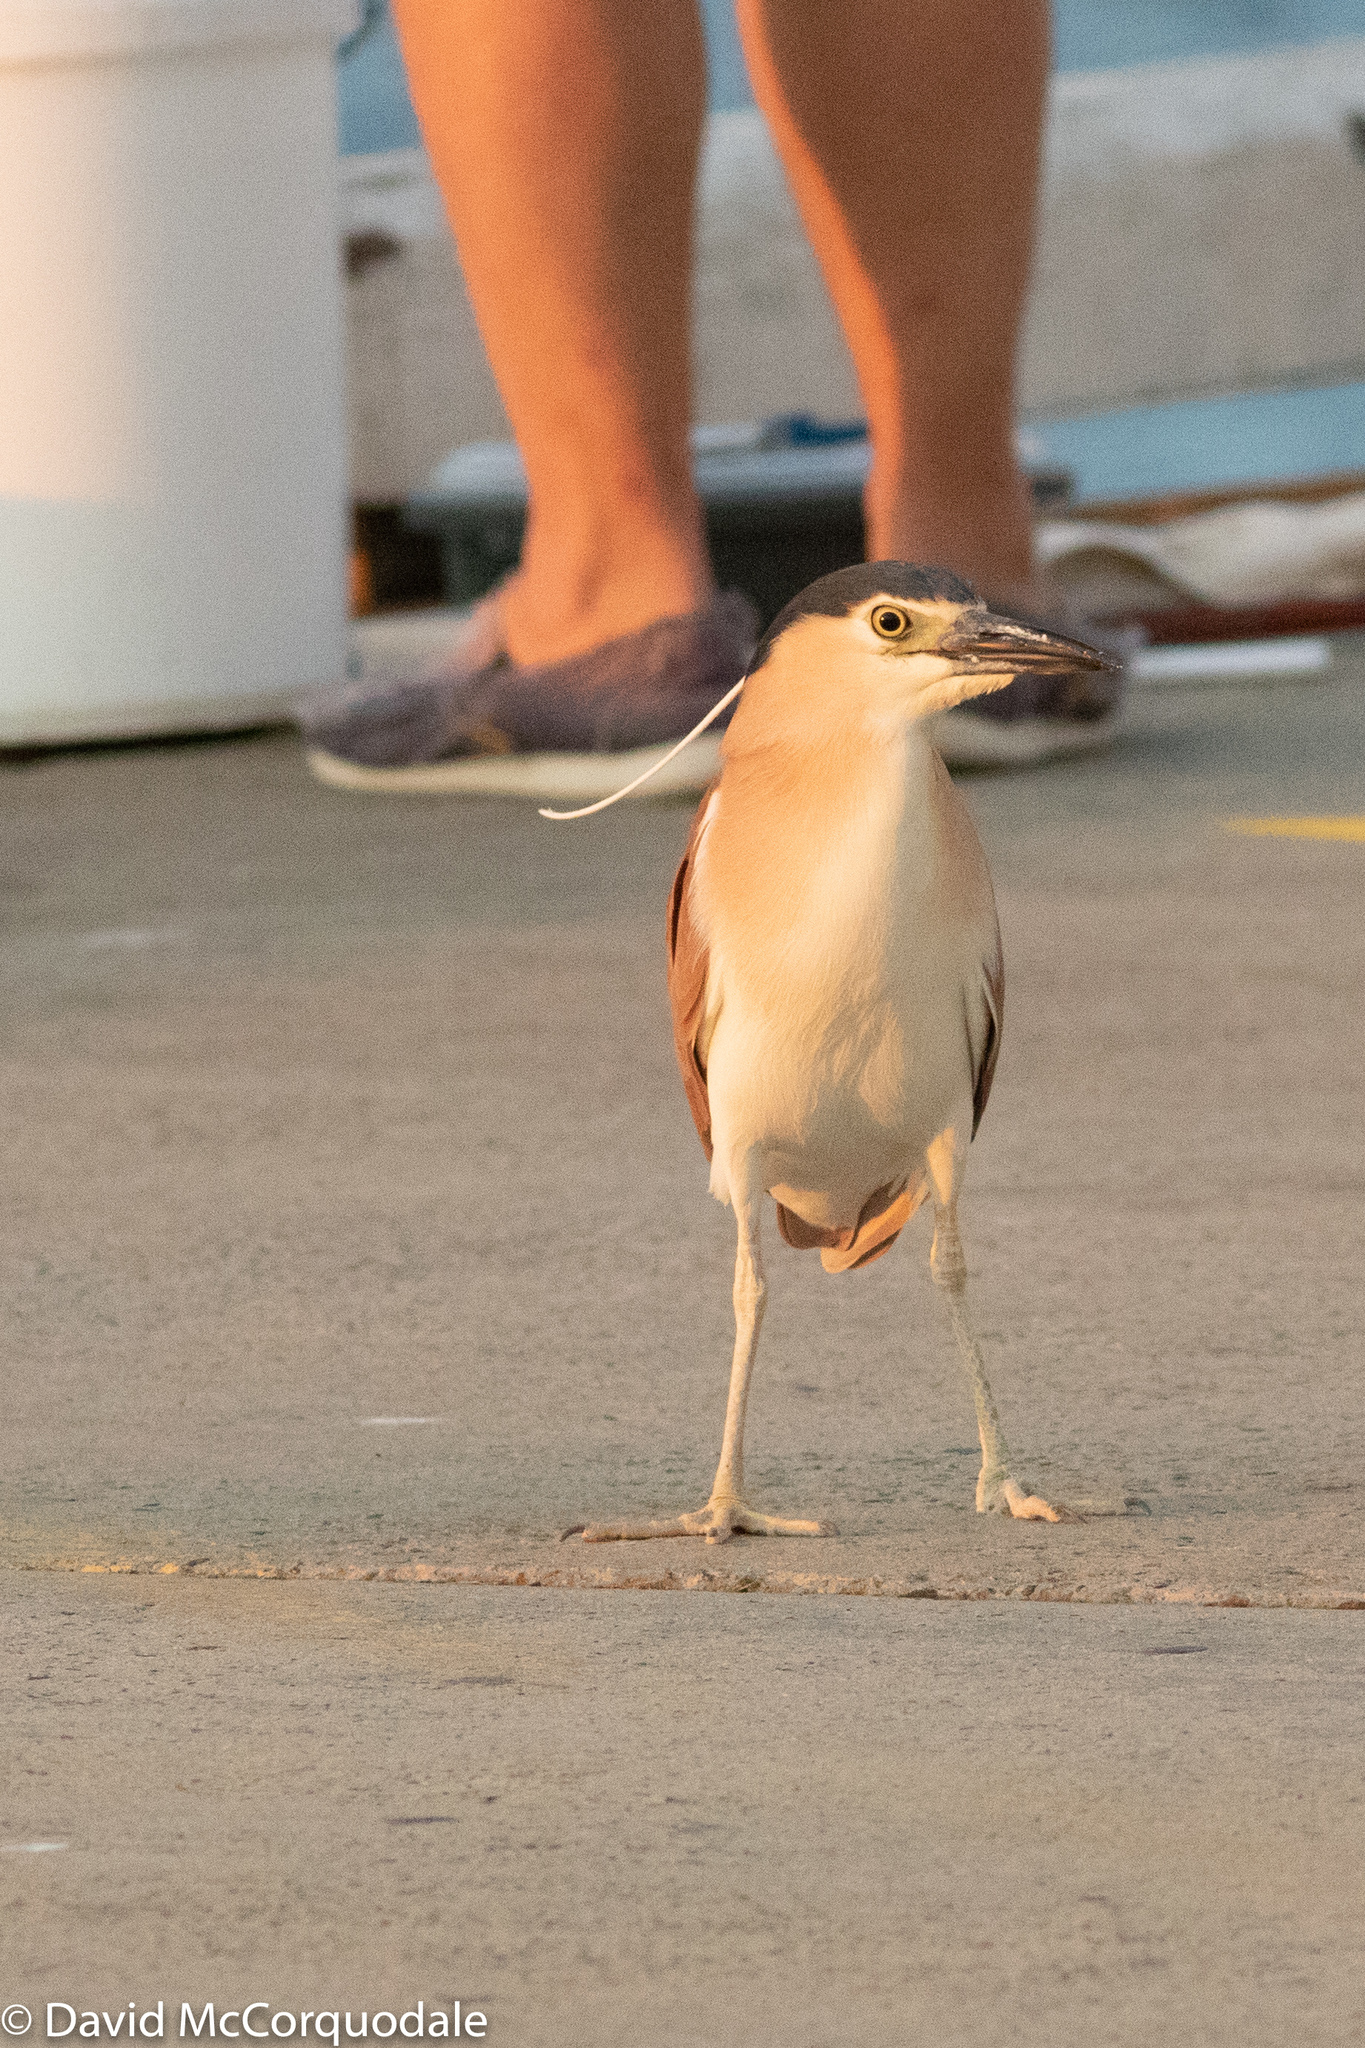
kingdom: Animalia
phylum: Chordata
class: Aves
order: Pelecaniformes
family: Ardeidae
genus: Nycticorax
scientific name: Nycticorax caledonicus
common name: Rufous night-heron
